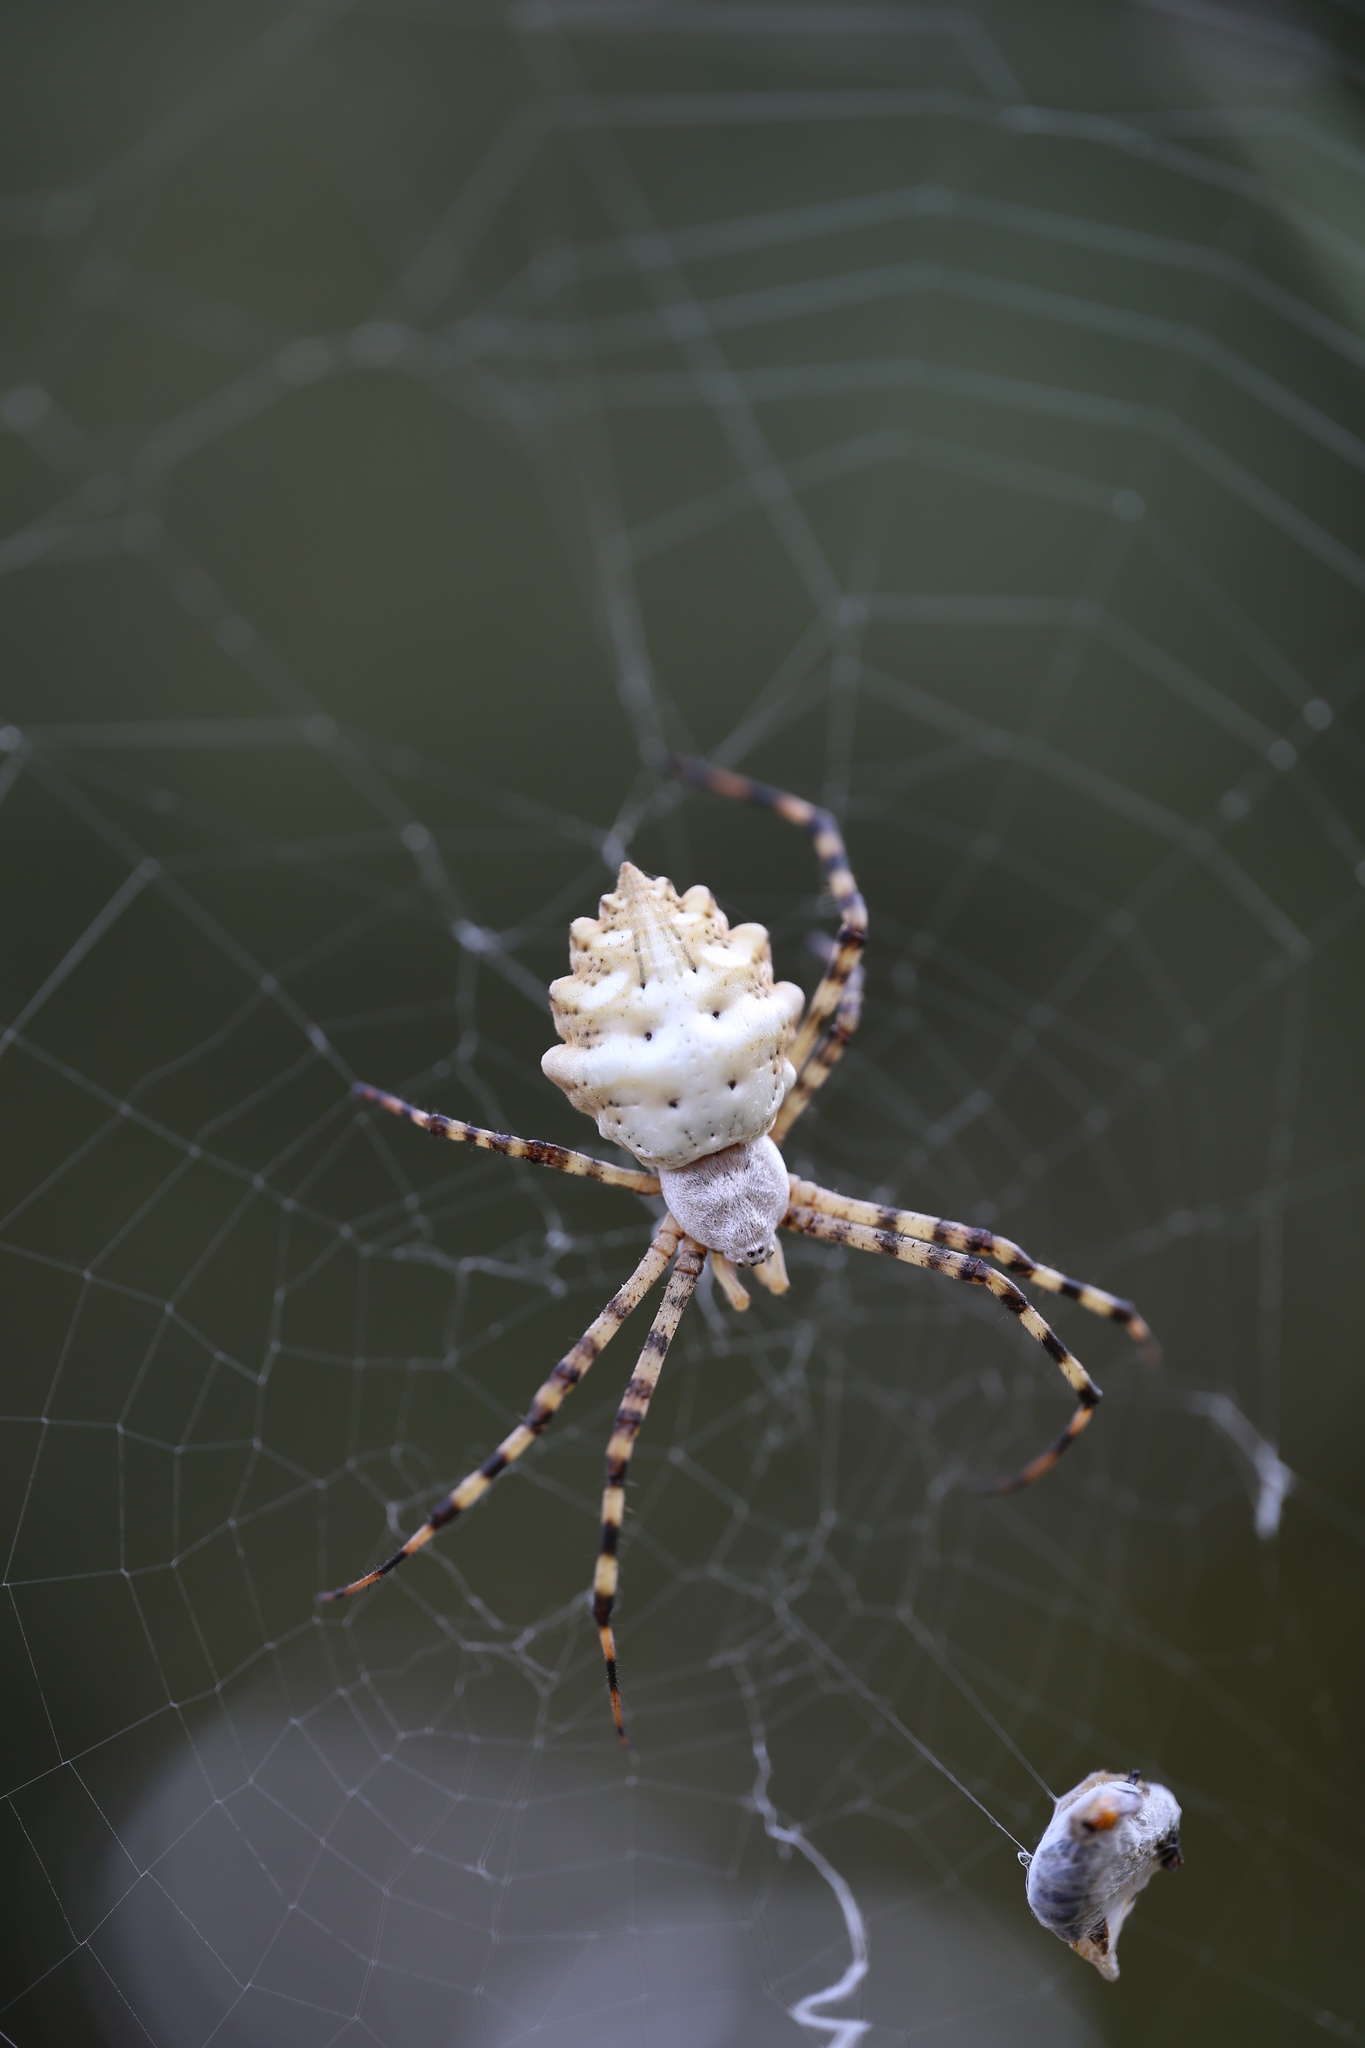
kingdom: Animalia
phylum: Arthropoda
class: Arachnida
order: Araneae
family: Araneidae
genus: Argiope
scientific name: Argiope lobata
